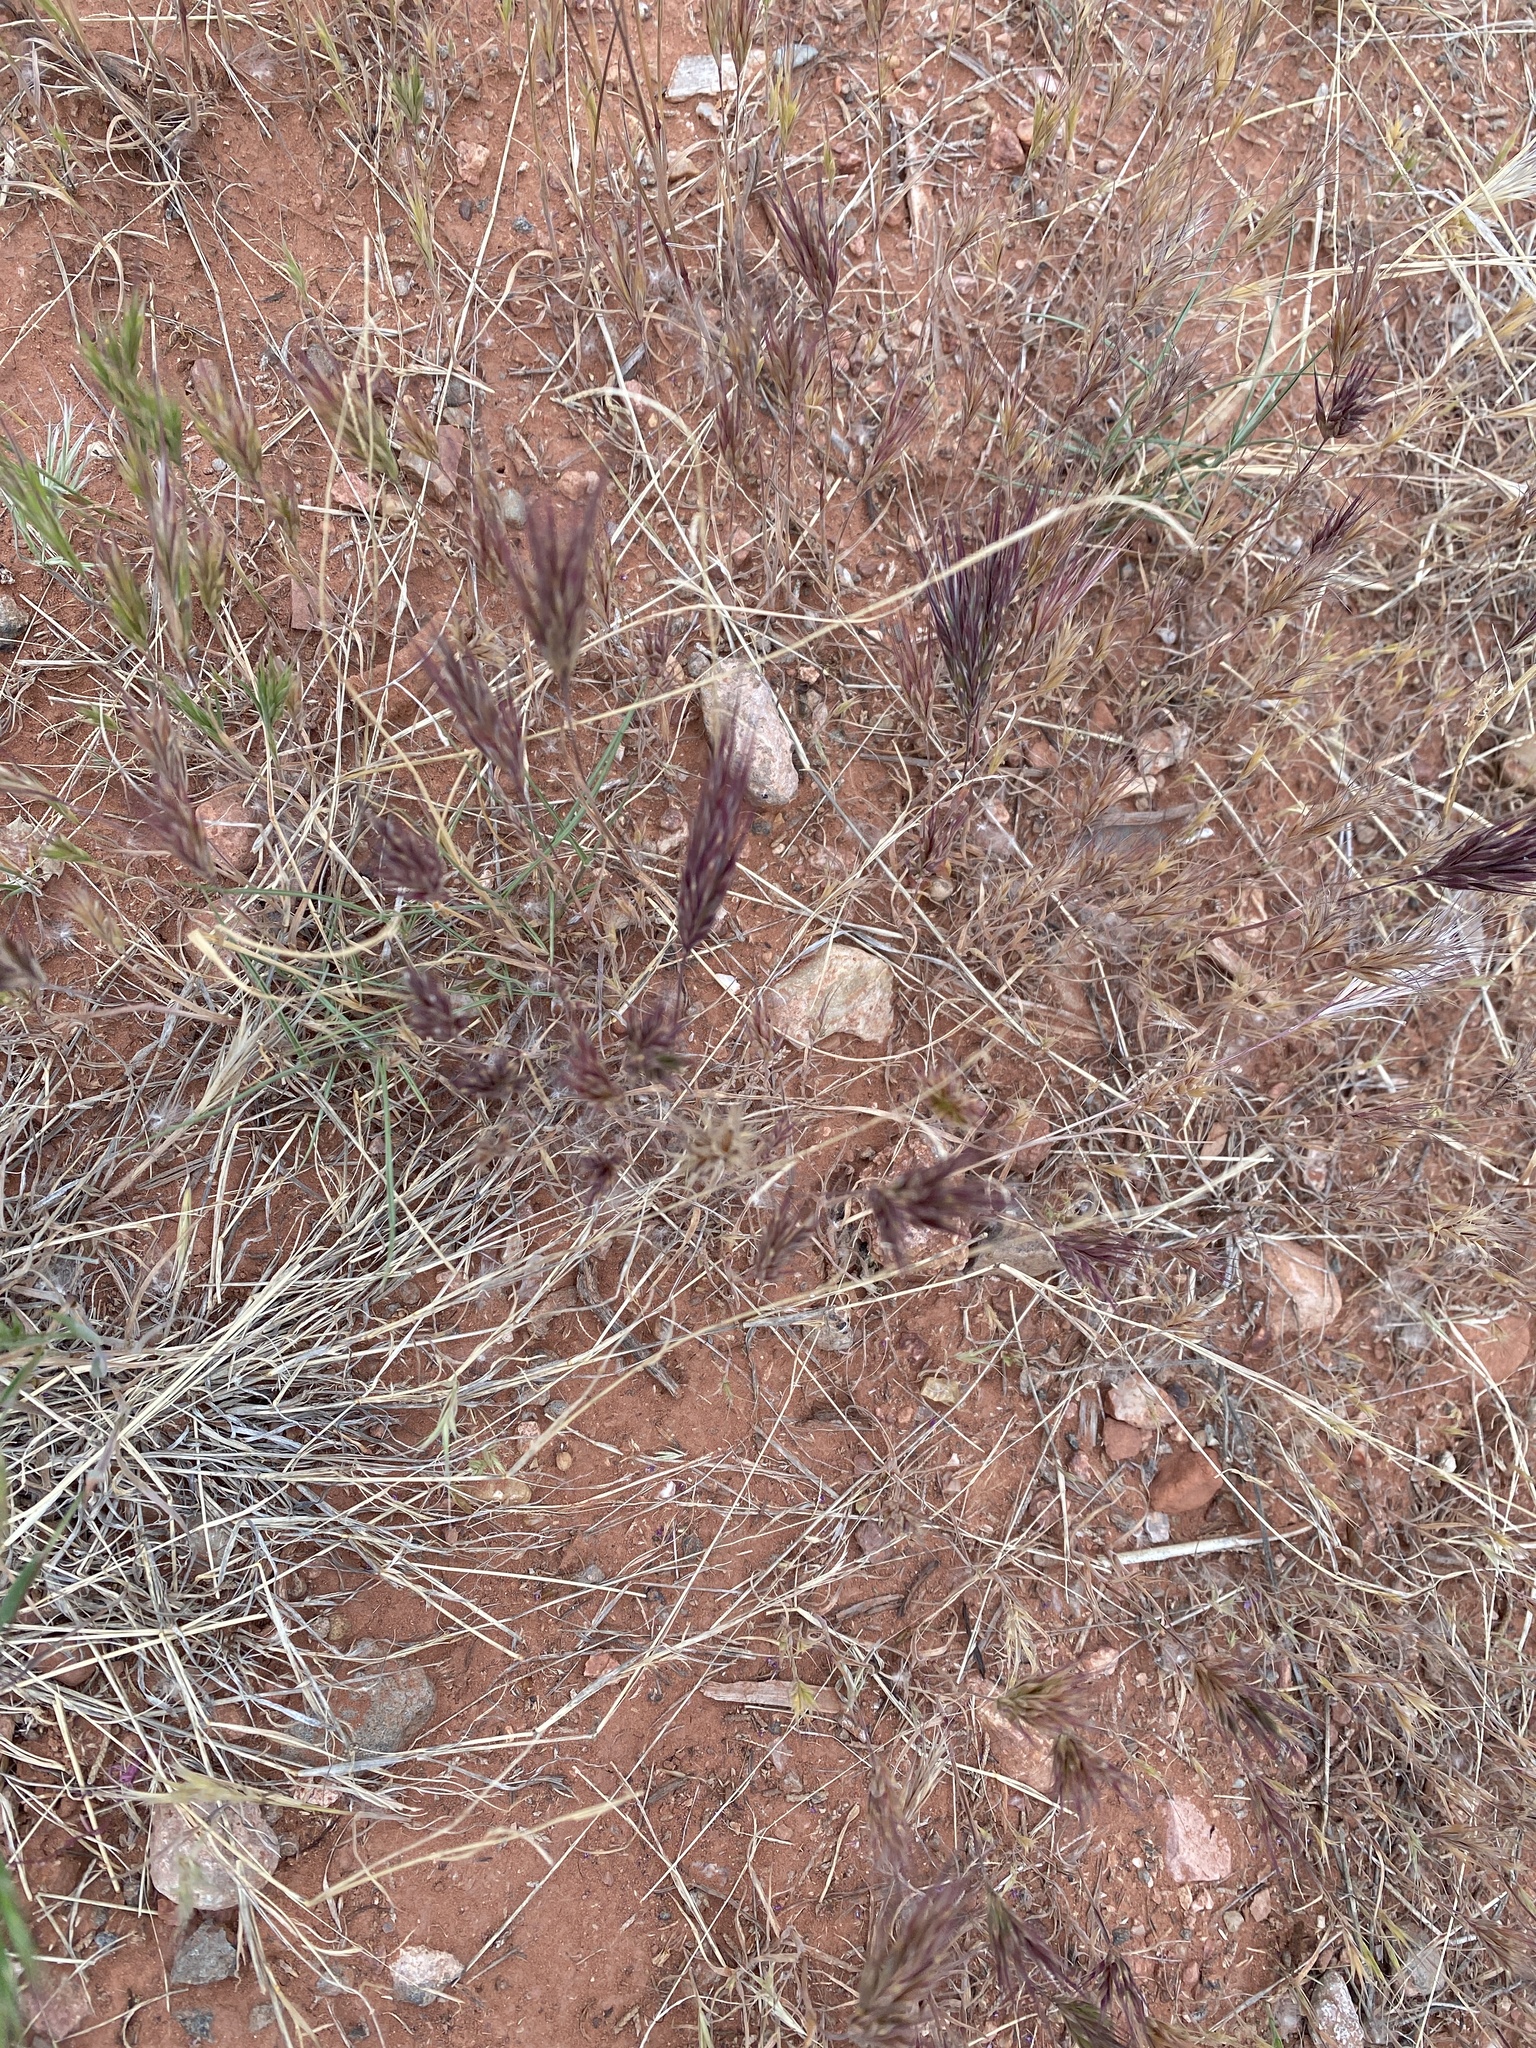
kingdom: Plantae
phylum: Tracheophyta
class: Liliopsida
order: Poales
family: Poaceae
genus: Bromus
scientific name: Bromus rubens
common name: Red brome
